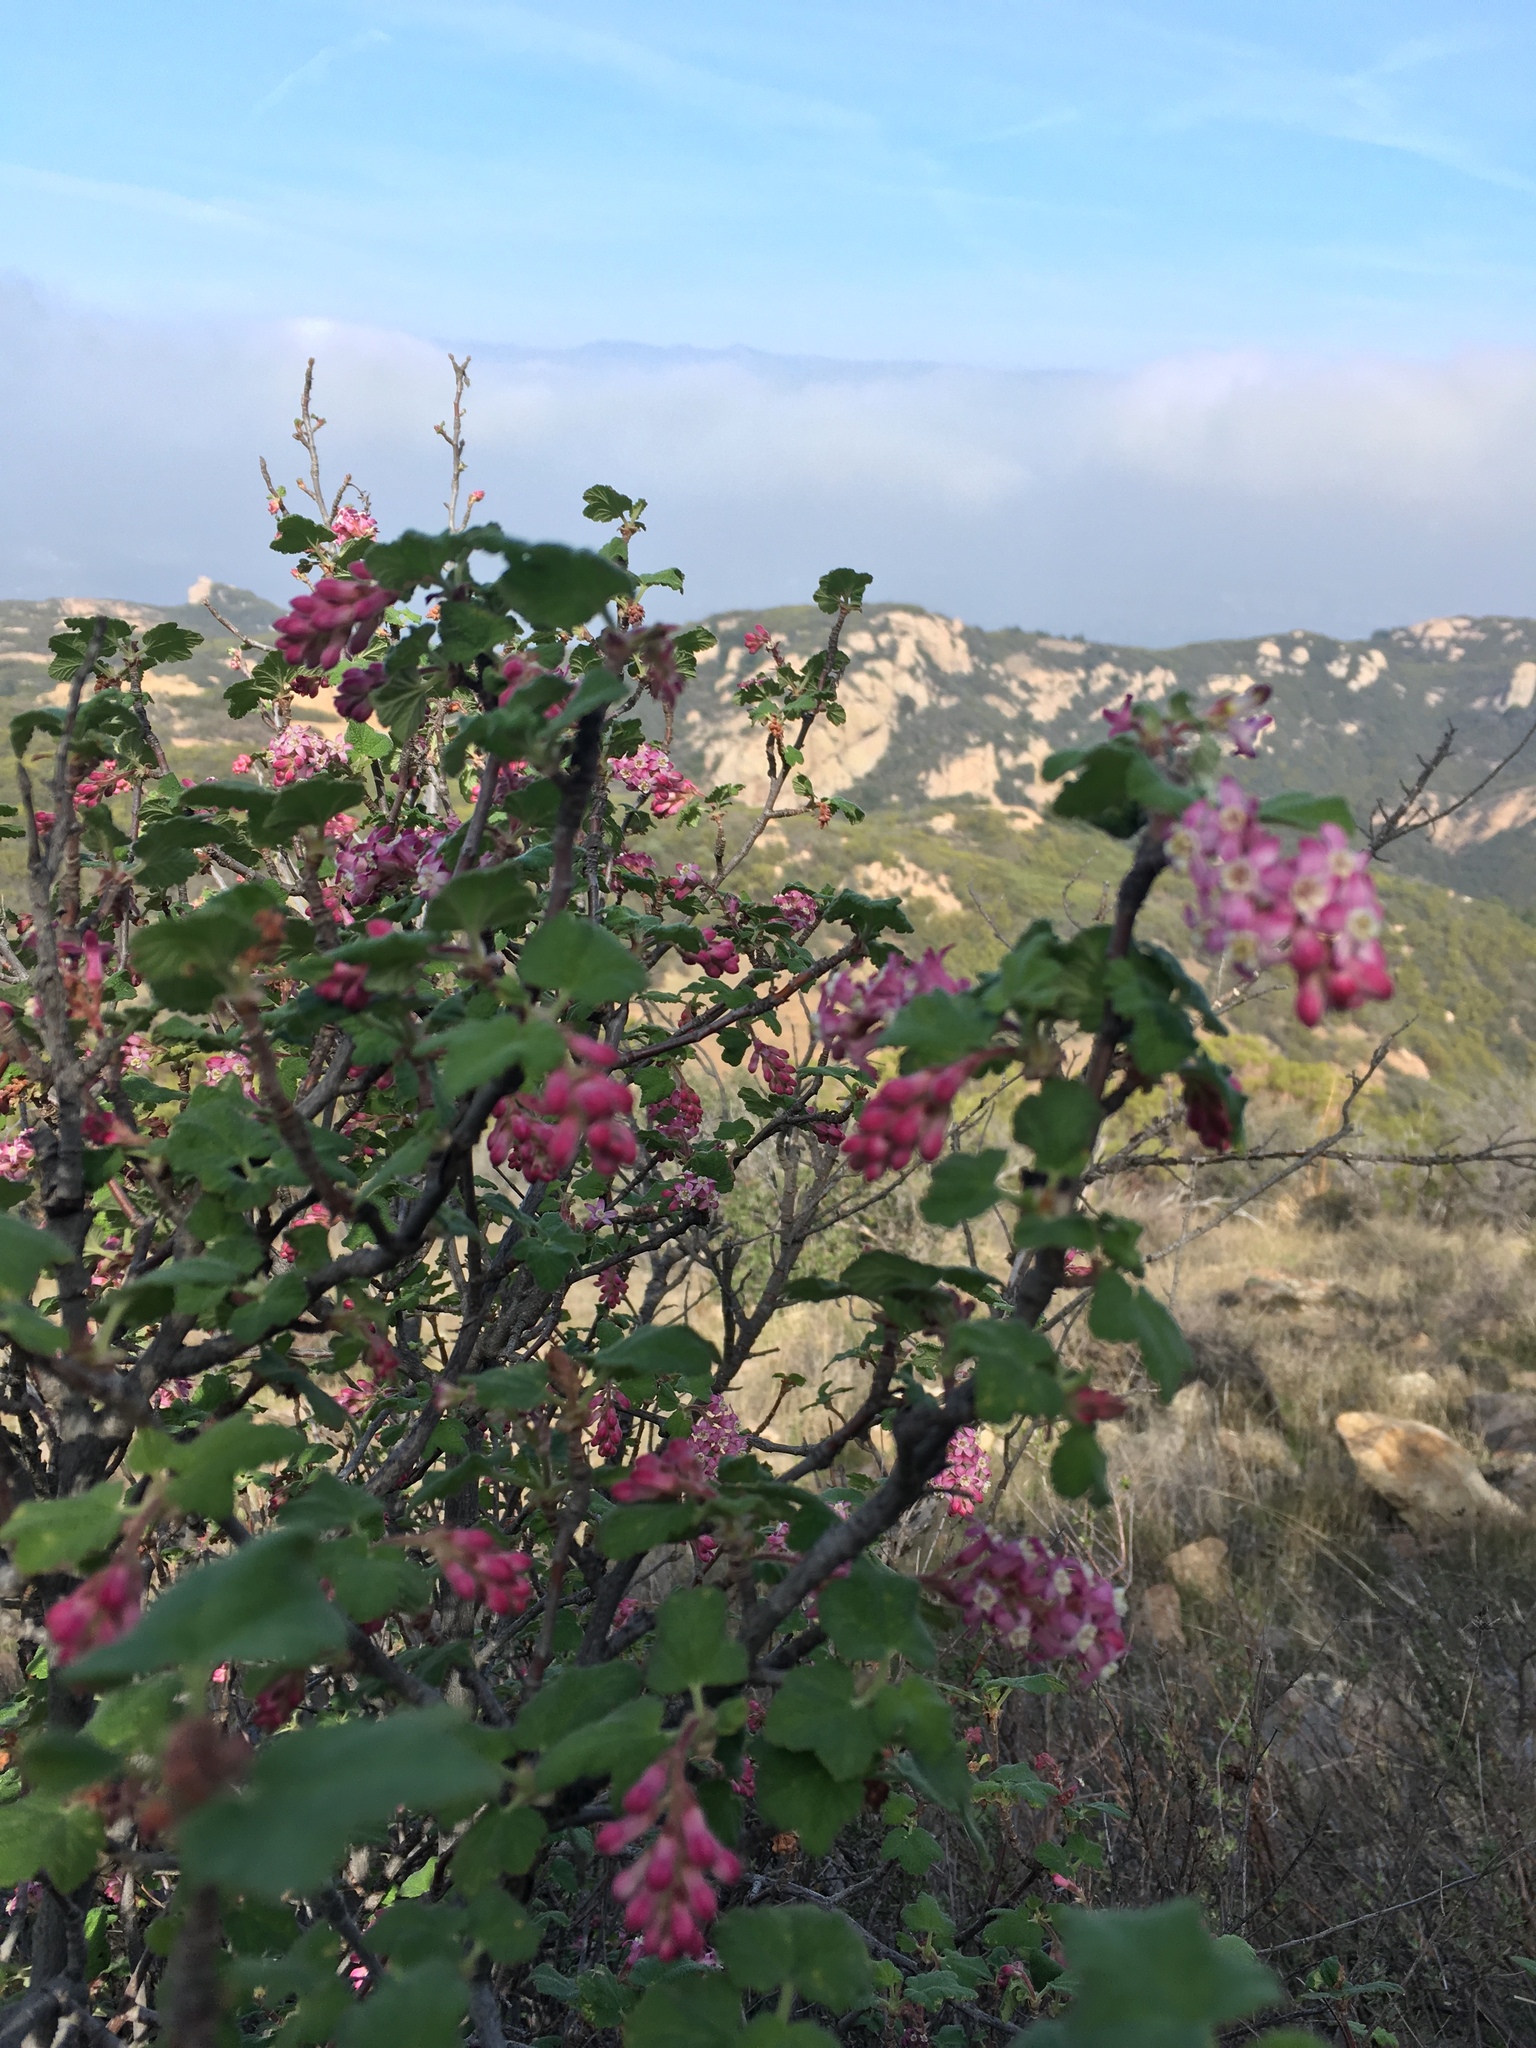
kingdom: Plantae
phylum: Tracheophyta
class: Magnoliopsida
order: Saxifragales
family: Grossulariaceae
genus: Ribes
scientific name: Ribes malvaceum
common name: Chaparral currant
